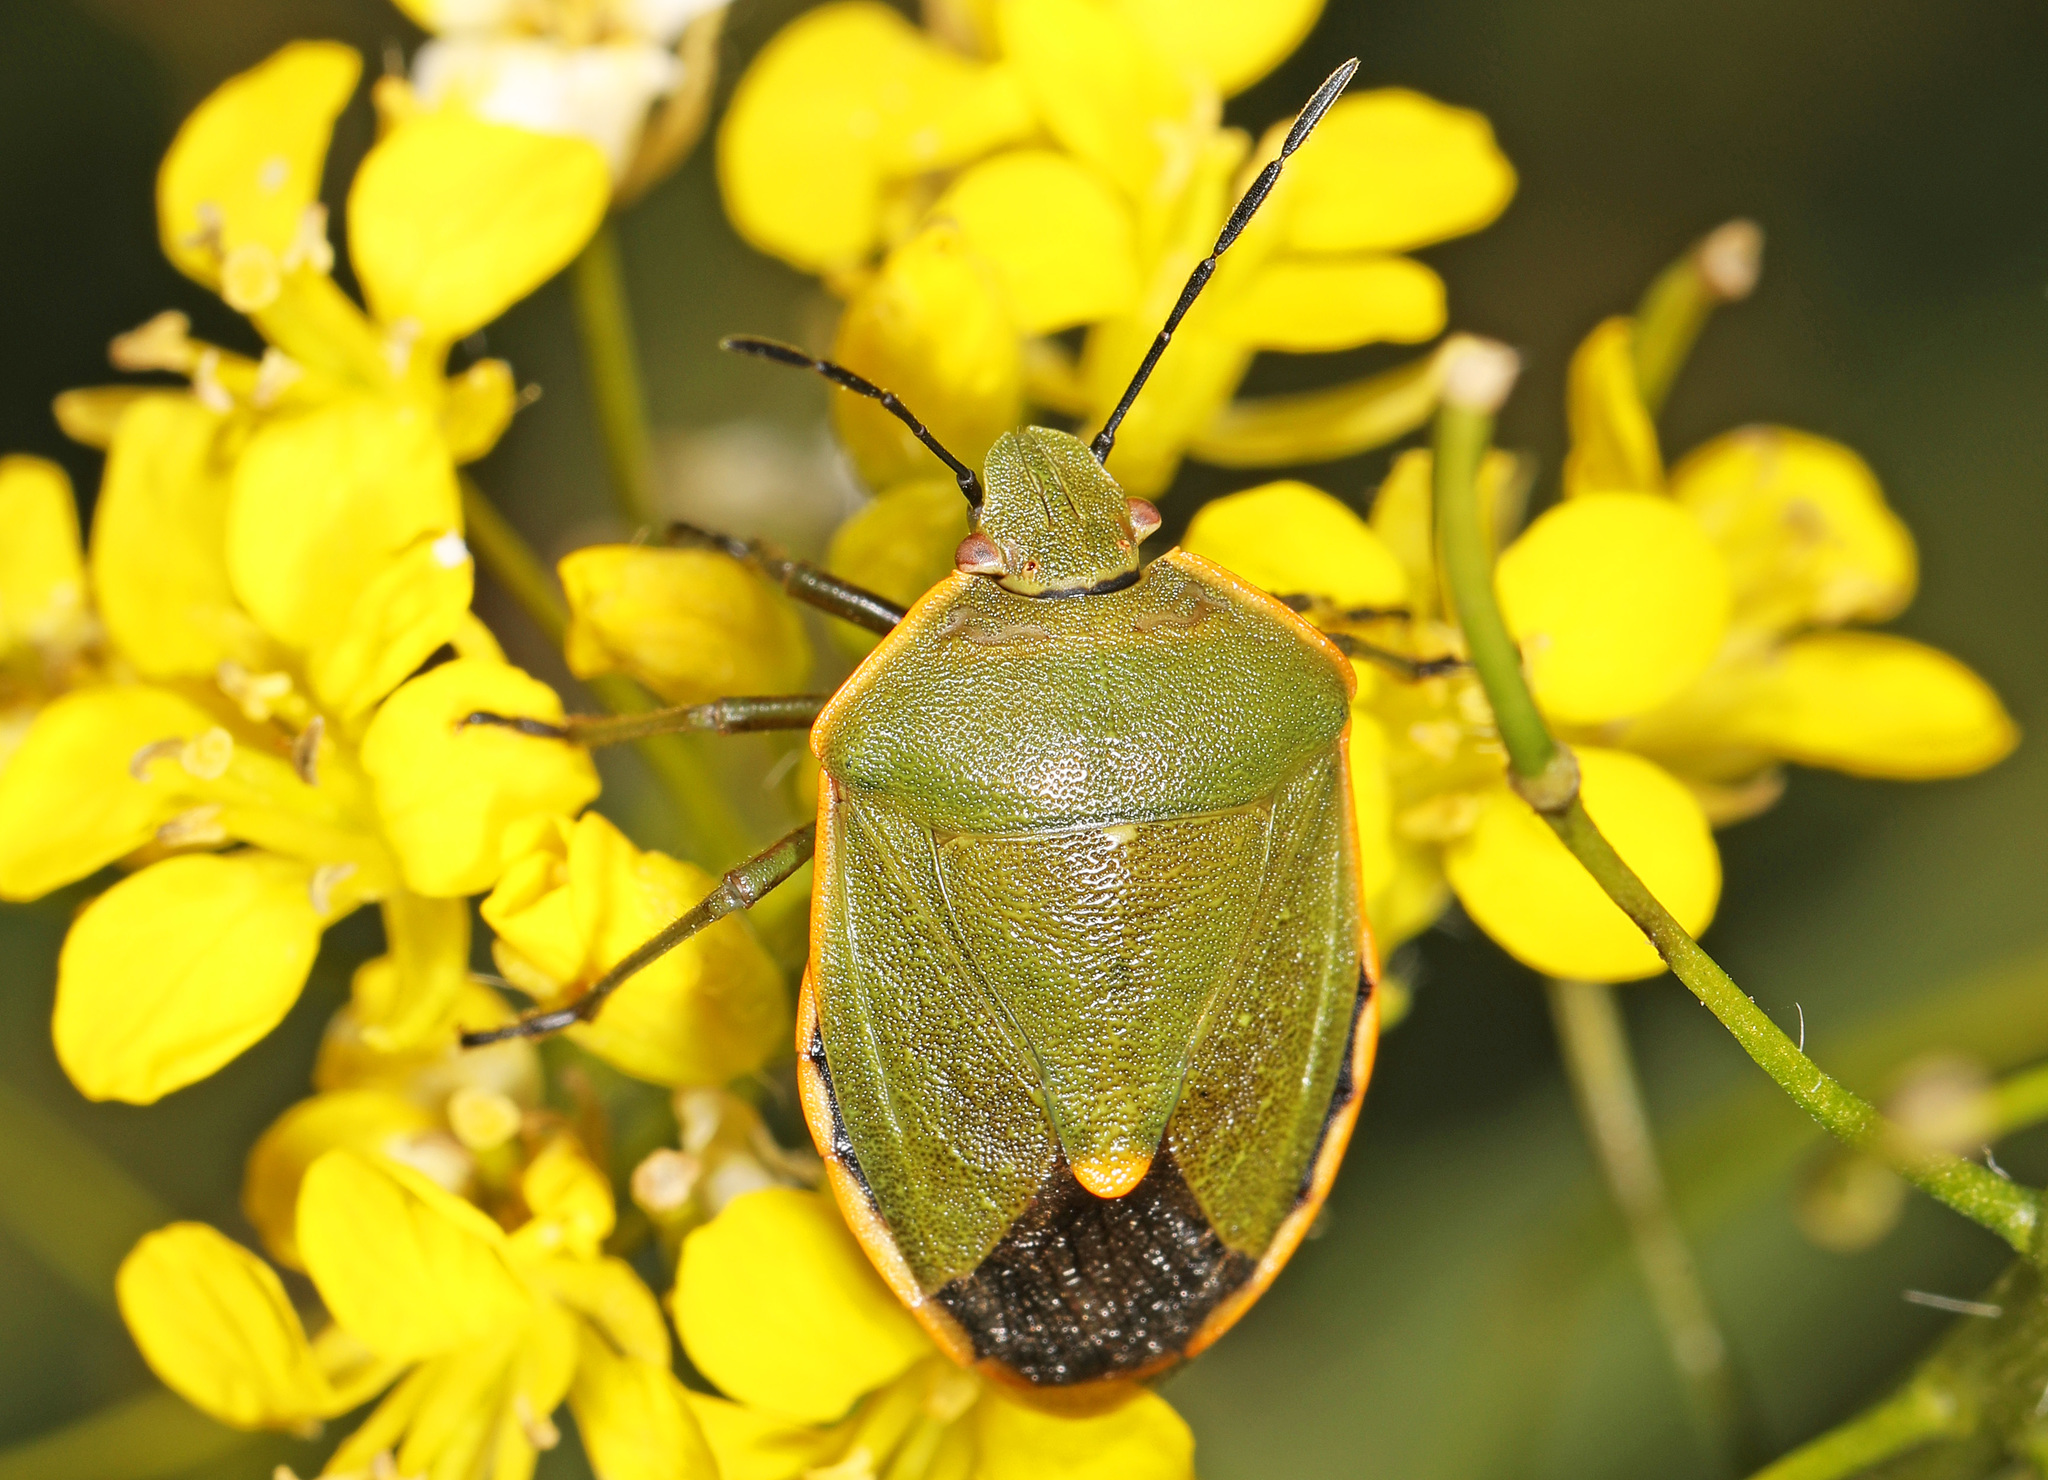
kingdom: Animalia
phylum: Arthropoda
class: Insecta
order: Hemiptera
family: Pentatomidae
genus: Chlorochroa
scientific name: Chlorochroa ligata
